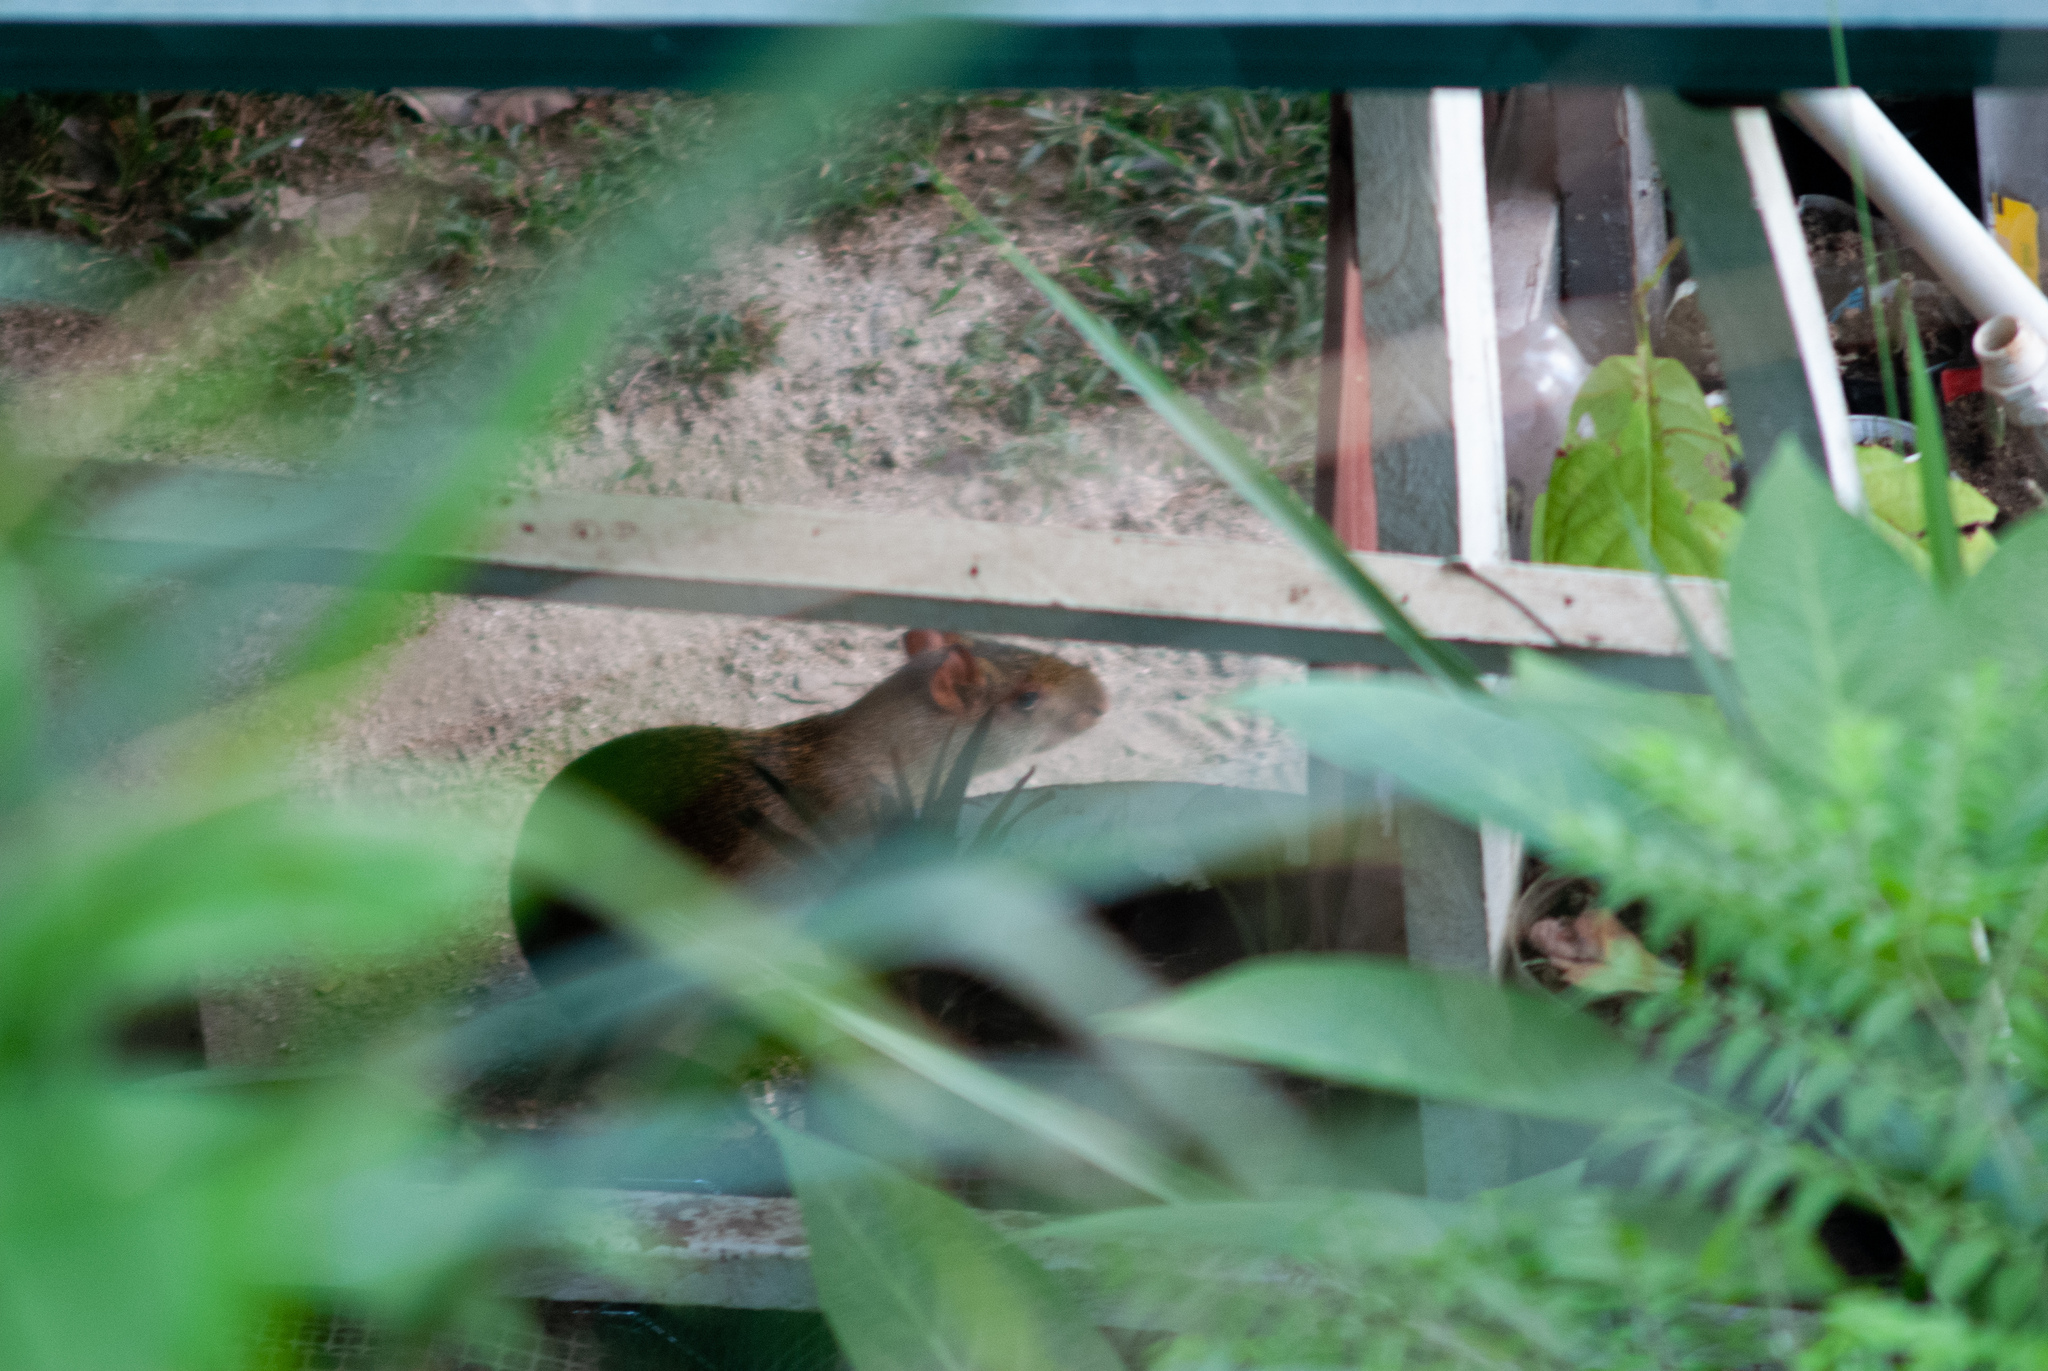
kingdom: Animalia
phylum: Chordata
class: Mammalia
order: Rodentia
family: Dasyproctidae
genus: Dasyprocta
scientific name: Dasyprocta punctata
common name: Central american agouti
